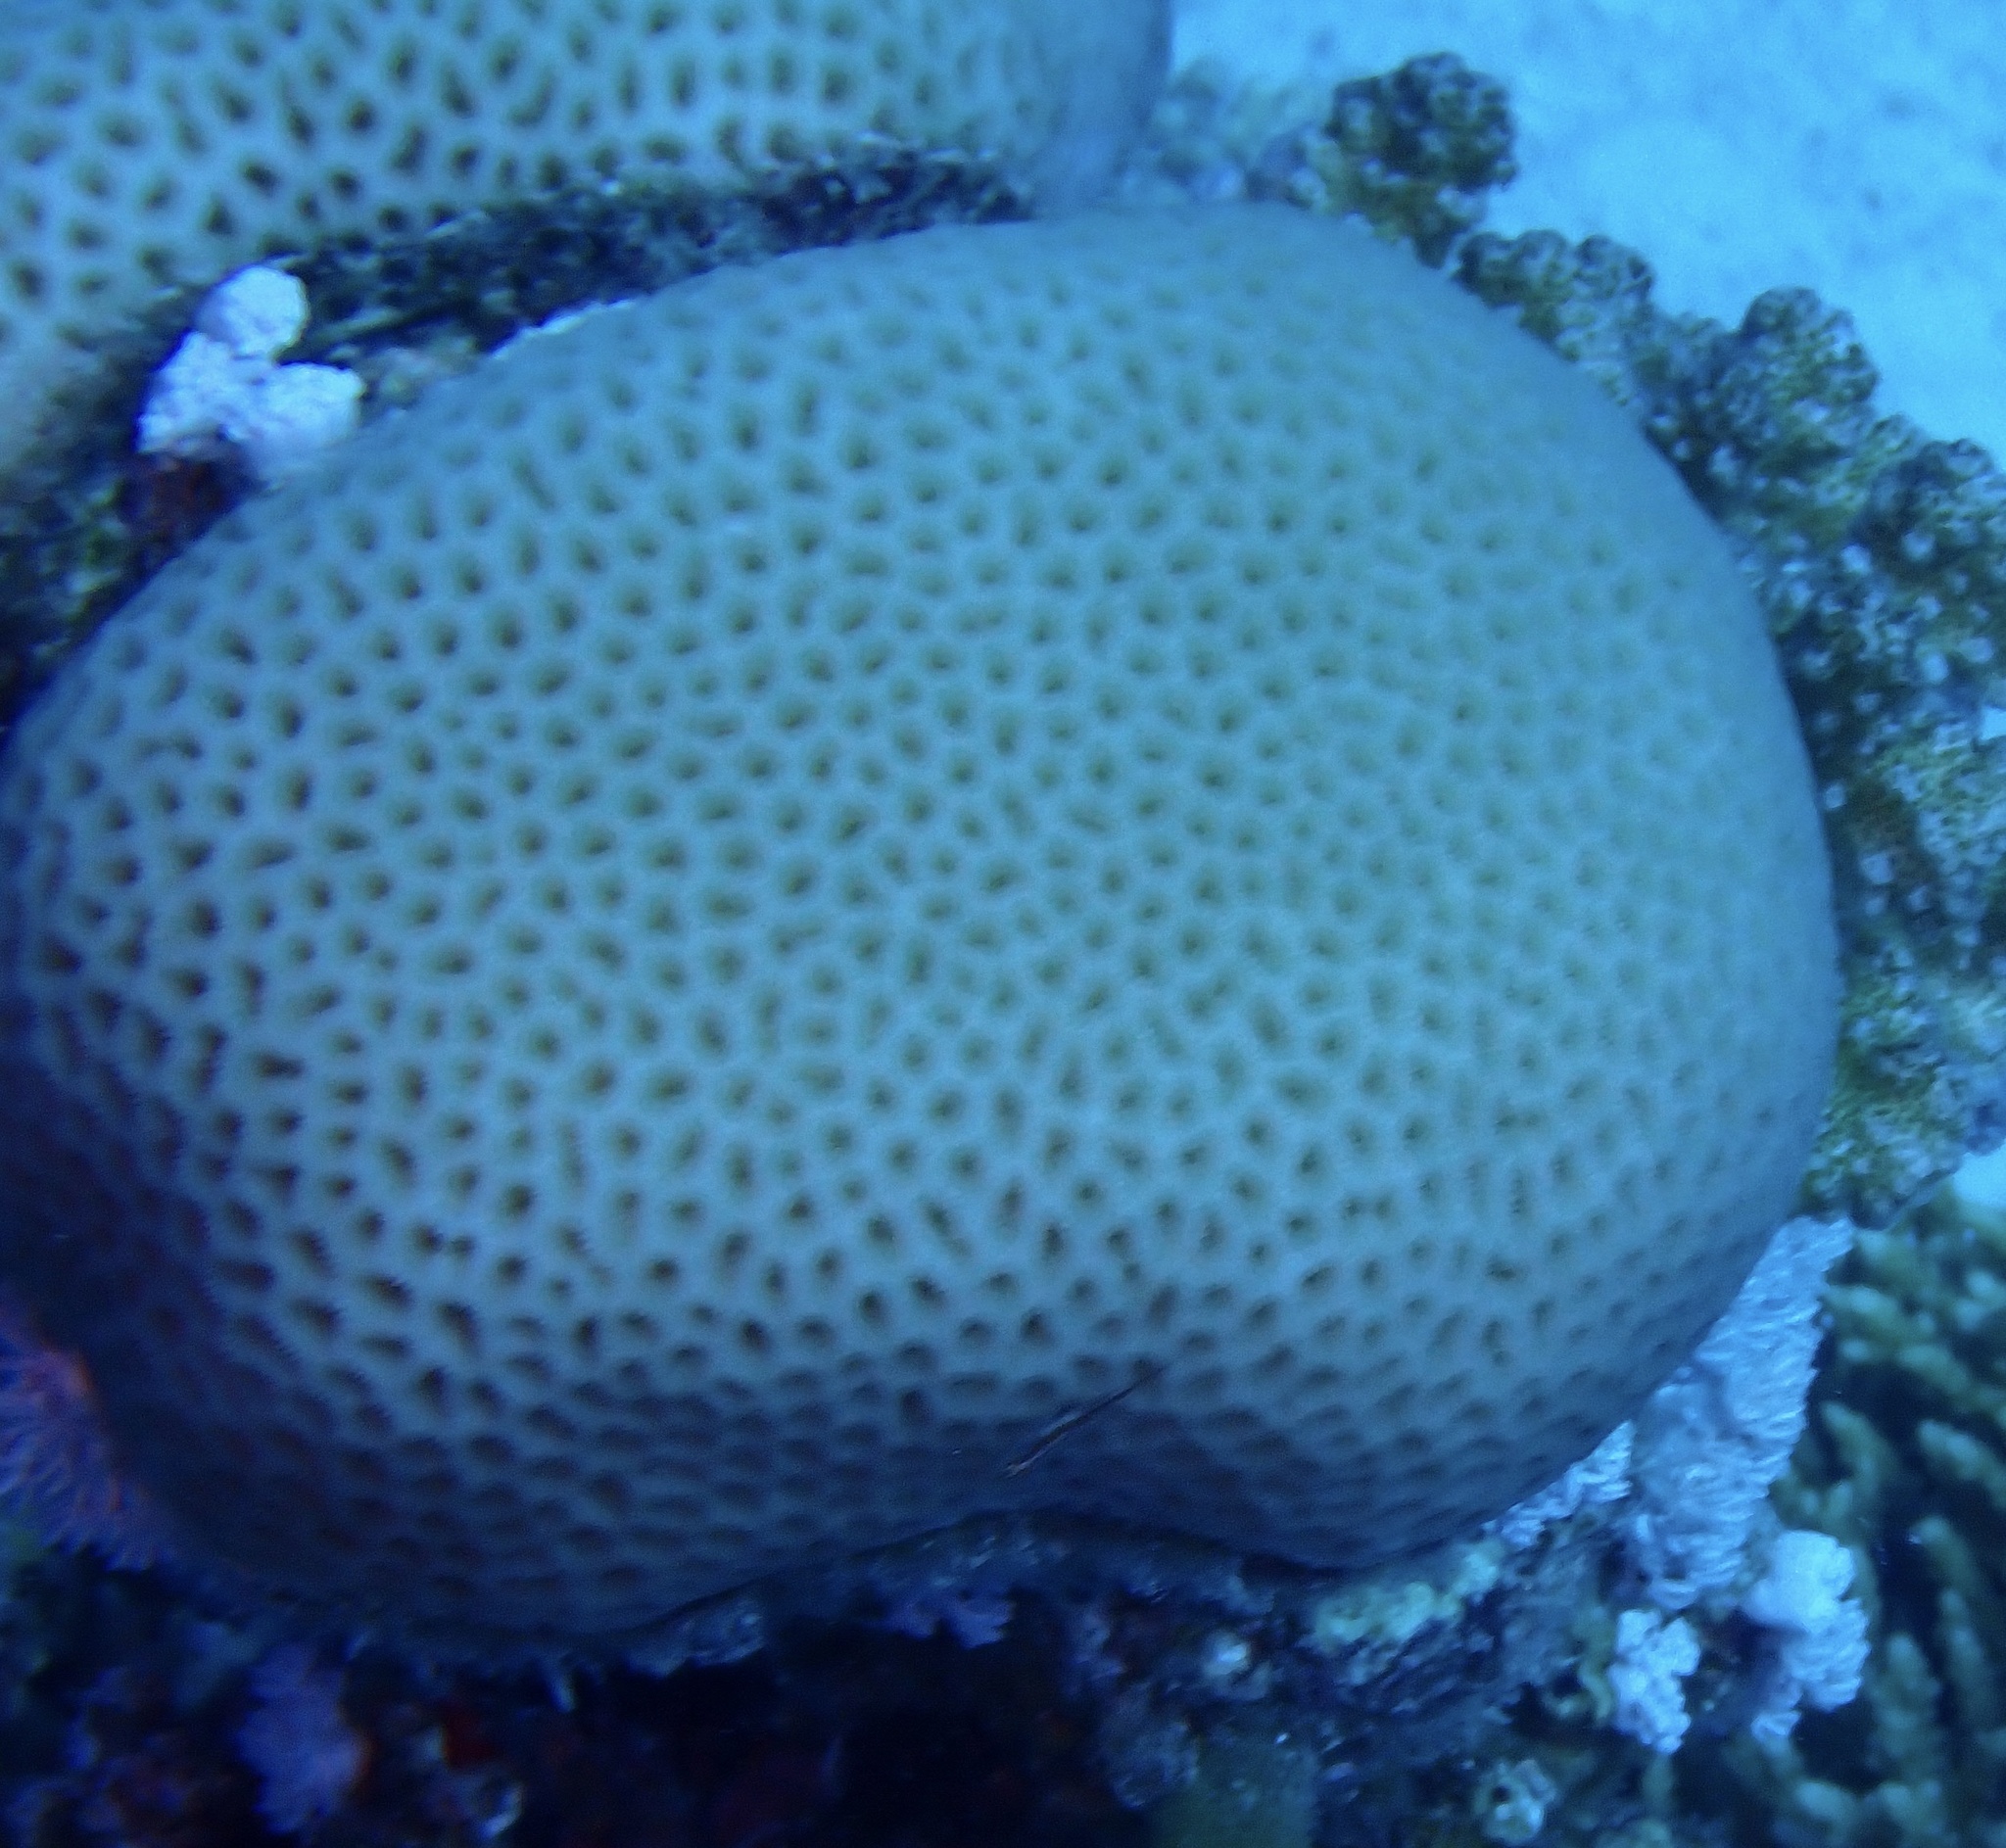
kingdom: Animalia
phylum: Cnidaria
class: Anthozoa
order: Scleractinia
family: Merulinidae
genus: Goniastrea
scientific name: Goniastrea pectinata
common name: Lesser star coral
